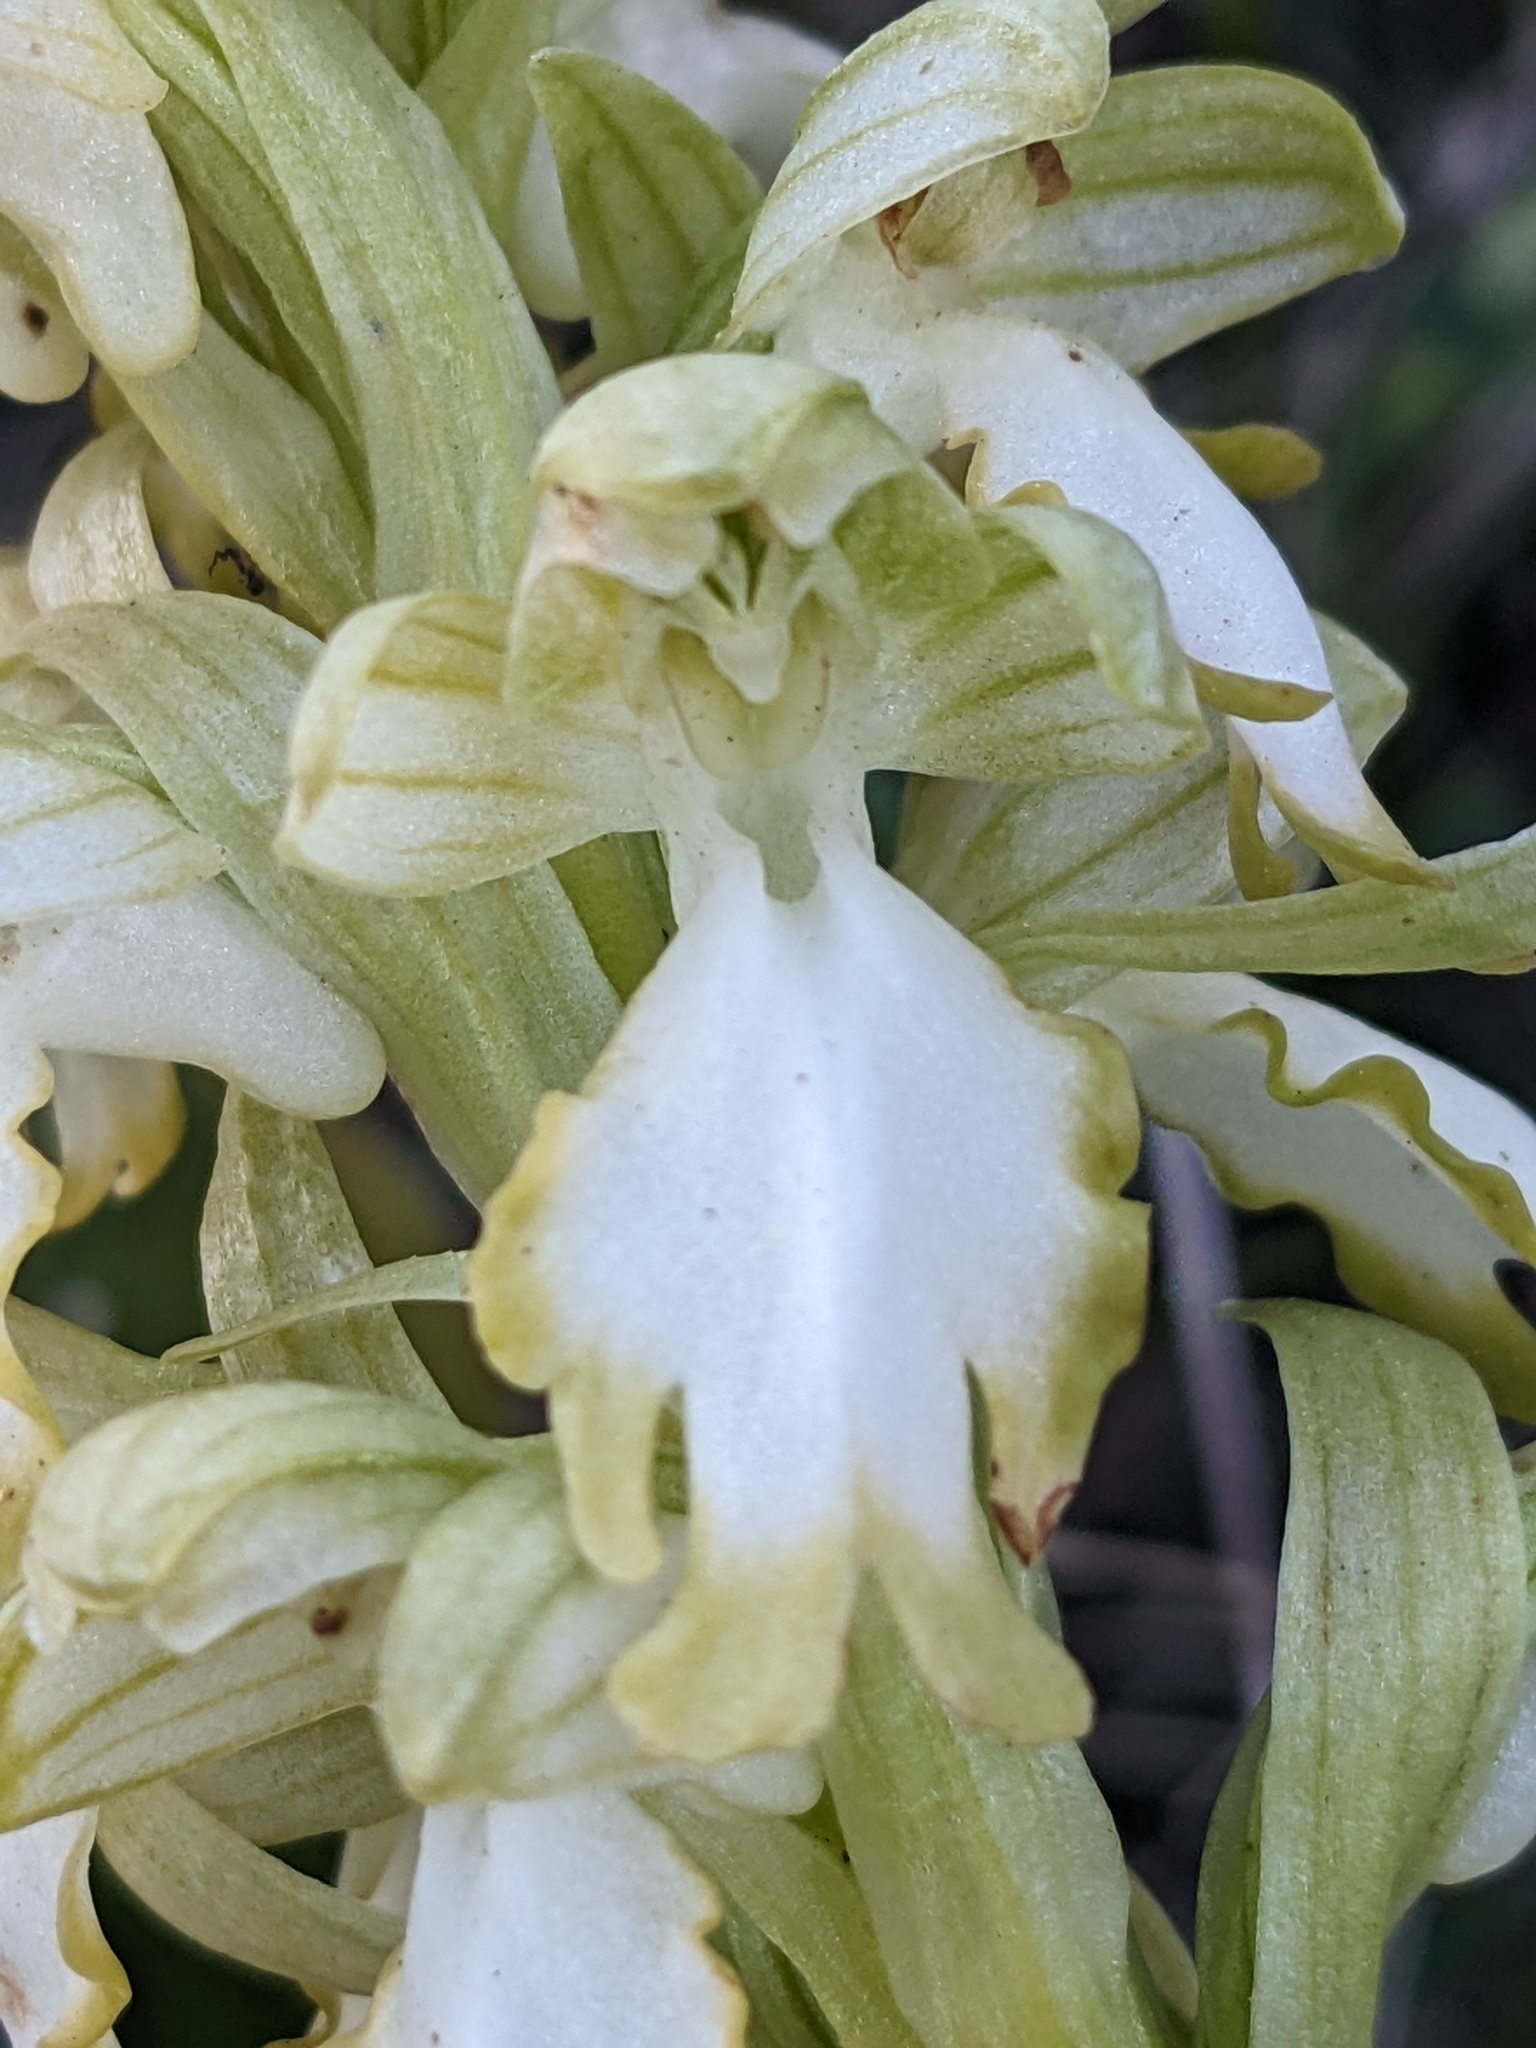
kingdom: Plantae
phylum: Tracheophyta
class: Liliopsida
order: Asparagales
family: Orchidaceae
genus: Himantoglossum
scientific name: Himantoglossum robertianum
